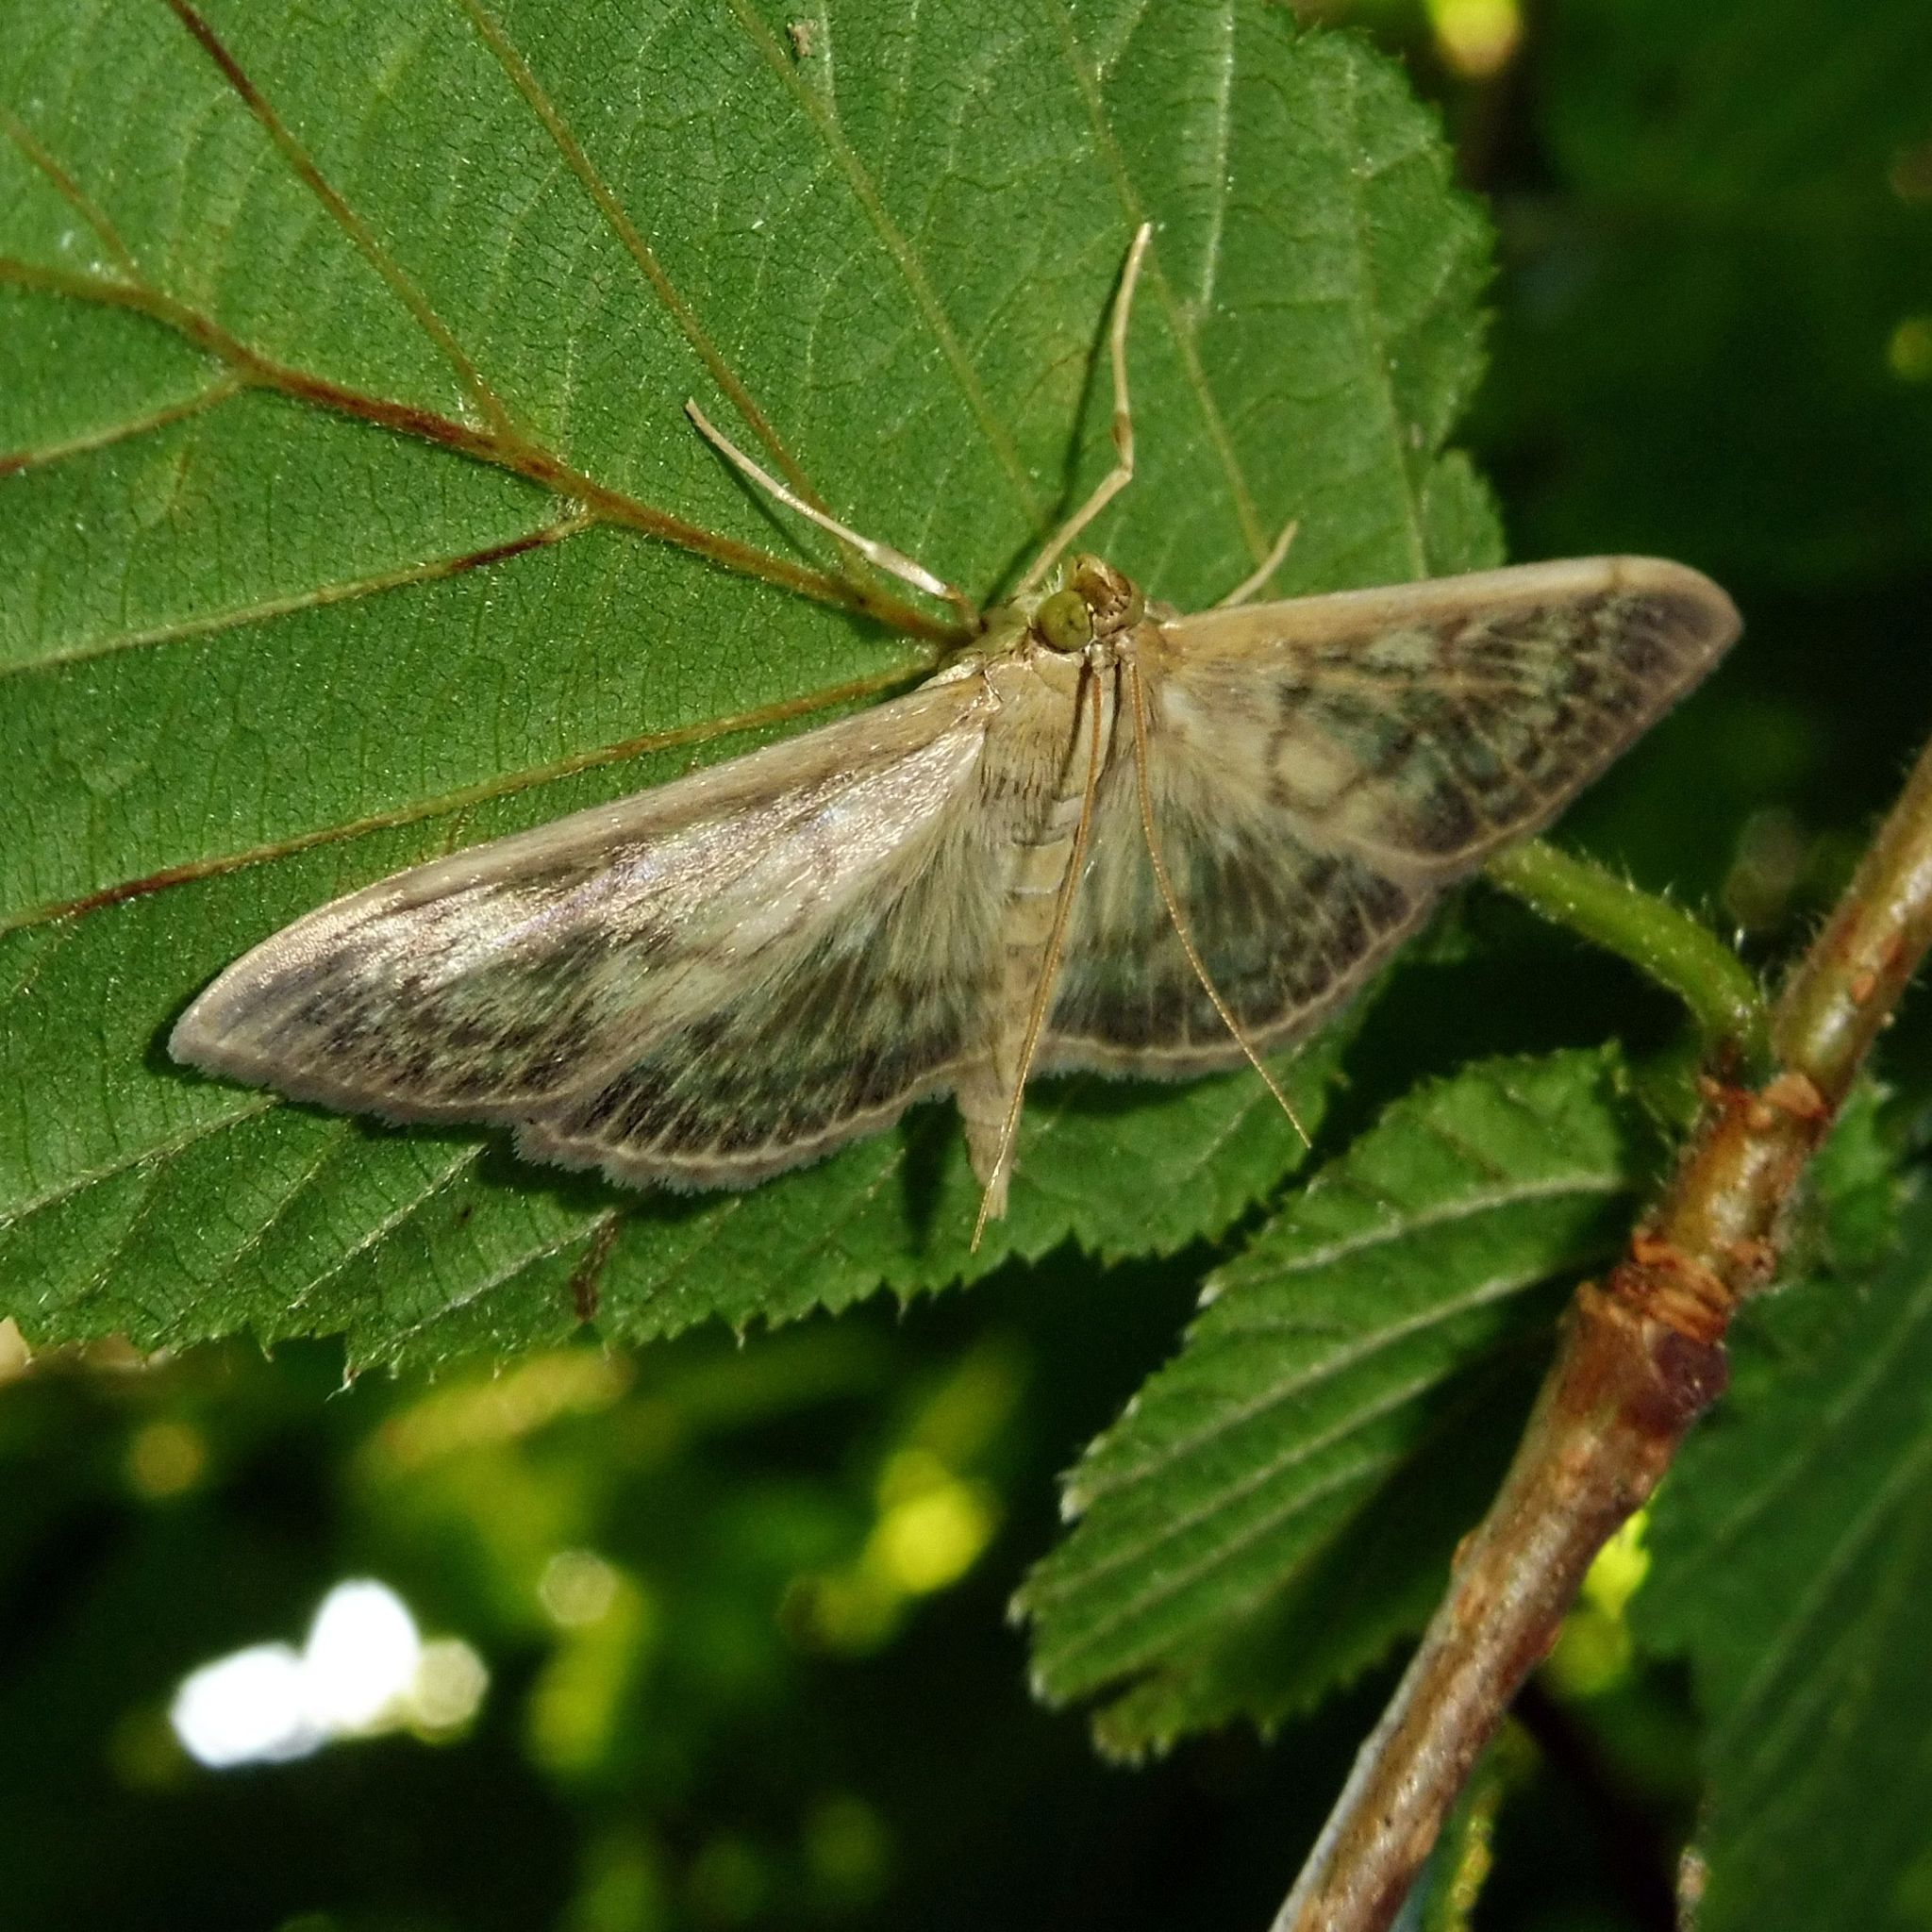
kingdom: Animalia
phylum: Arthropoda
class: Insecta
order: Lepidoptera
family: Crambidae
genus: Patania
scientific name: Patania ruralis
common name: Mother of pearl
